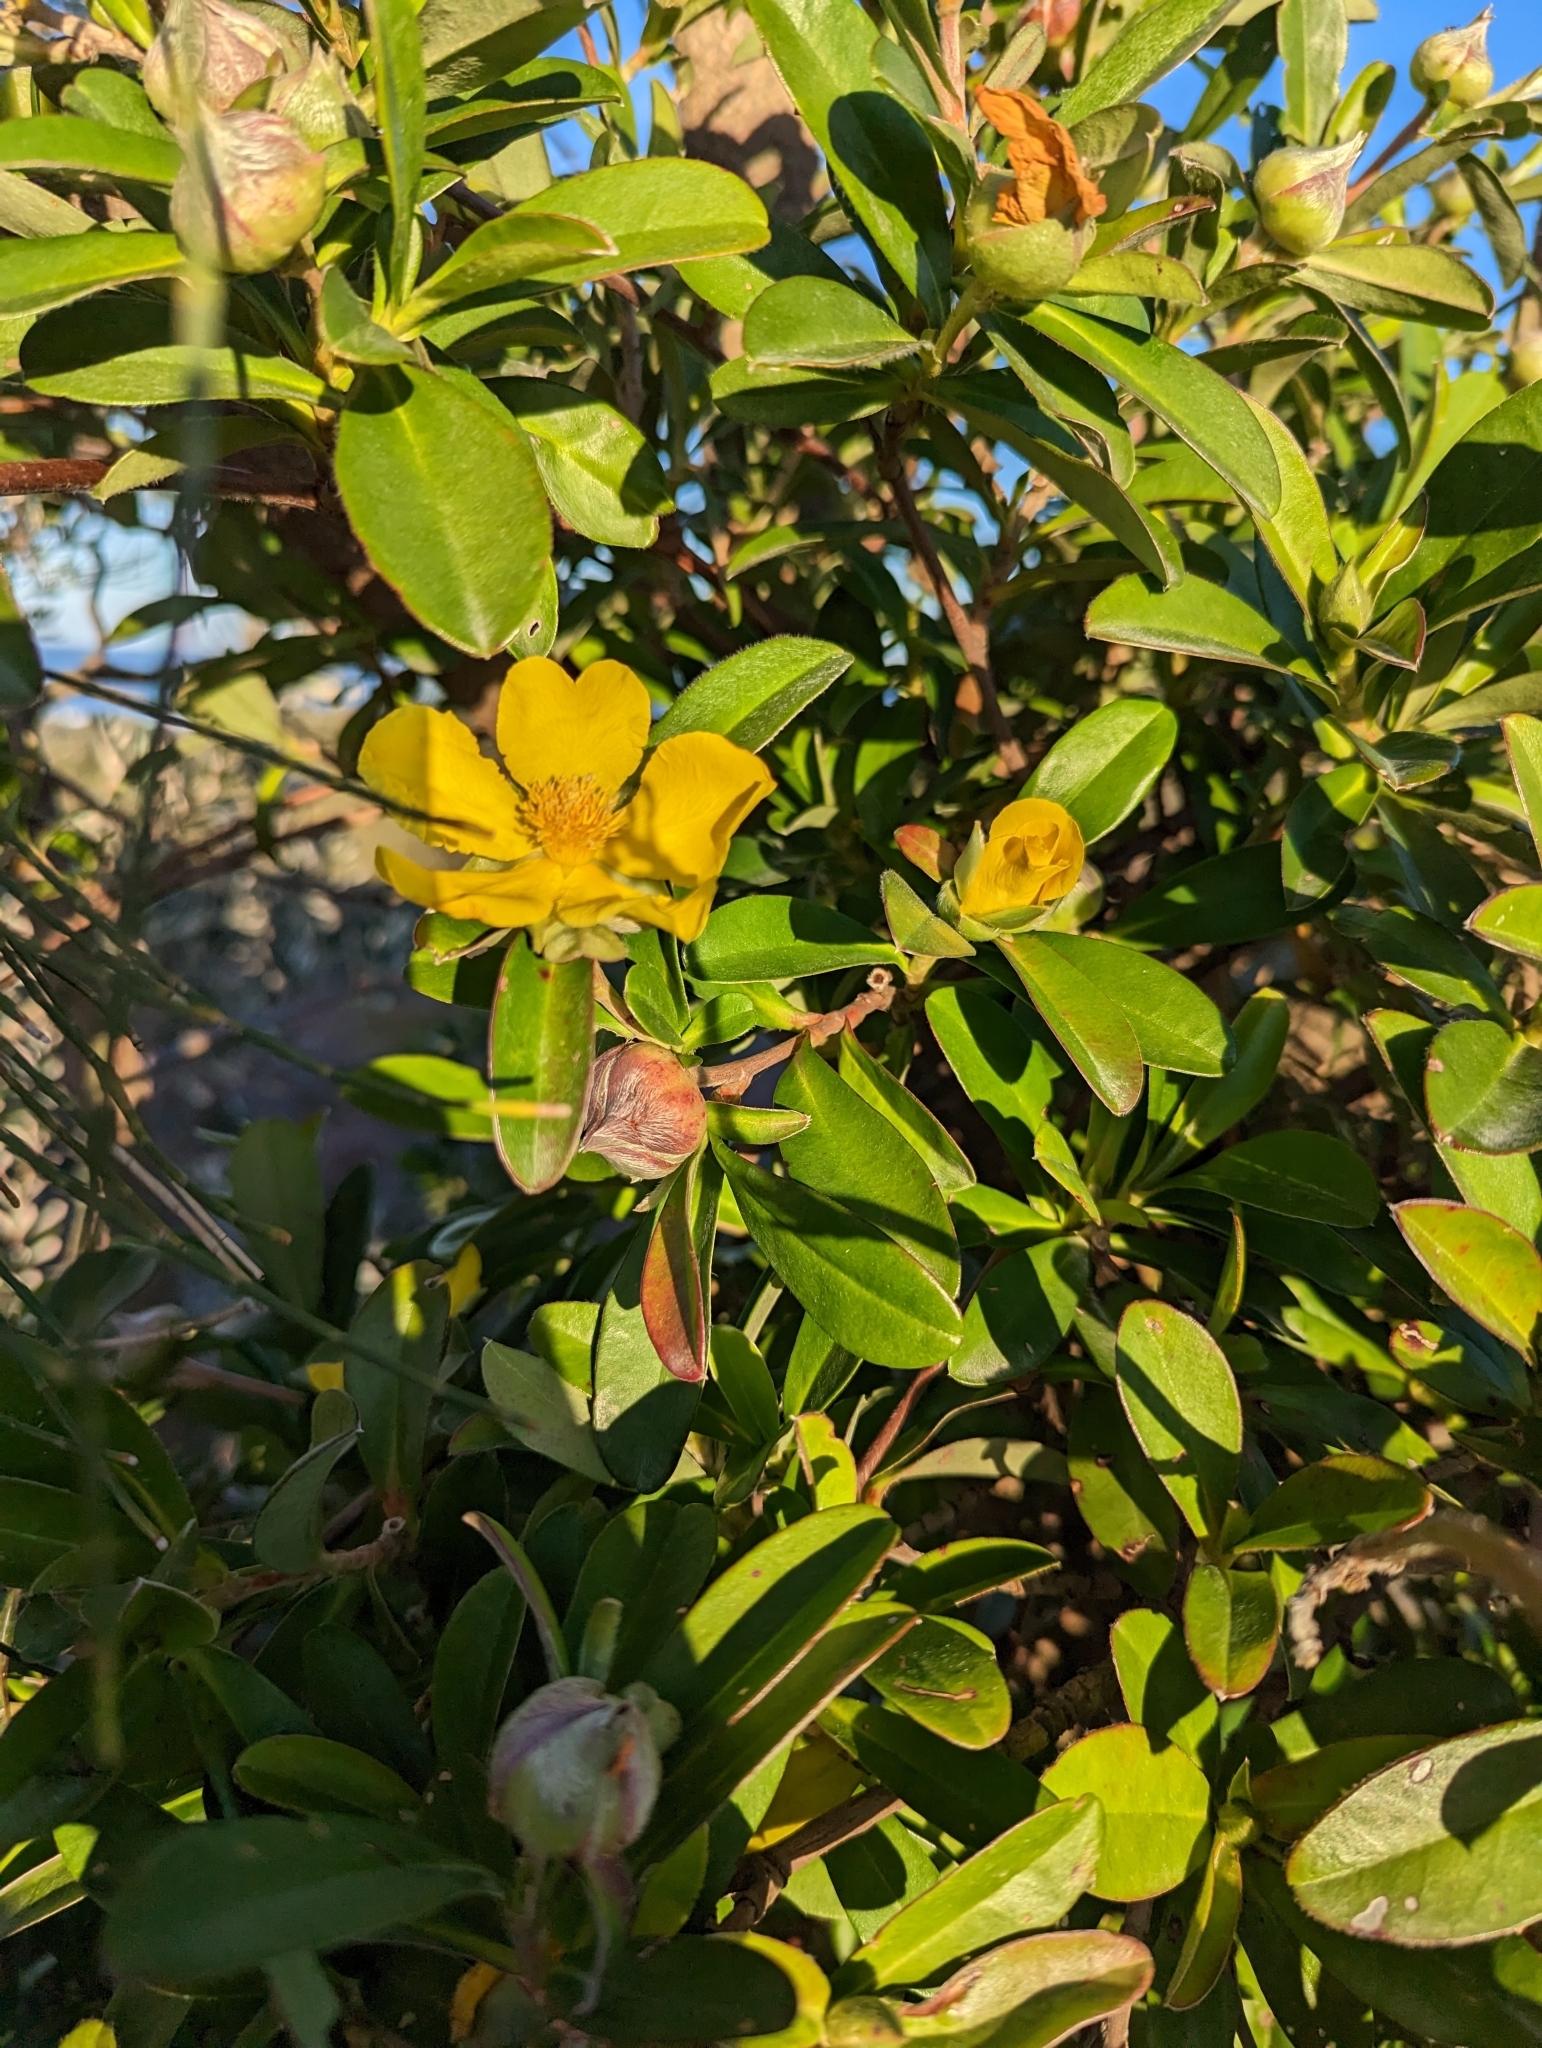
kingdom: Plantae
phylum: Tracheophyta
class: Magnoliopsida
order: Dilleniales
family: Dilleniaceae
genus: Hibbertia
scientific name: Hibbertia scandens
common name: Climbing guinea-flower
